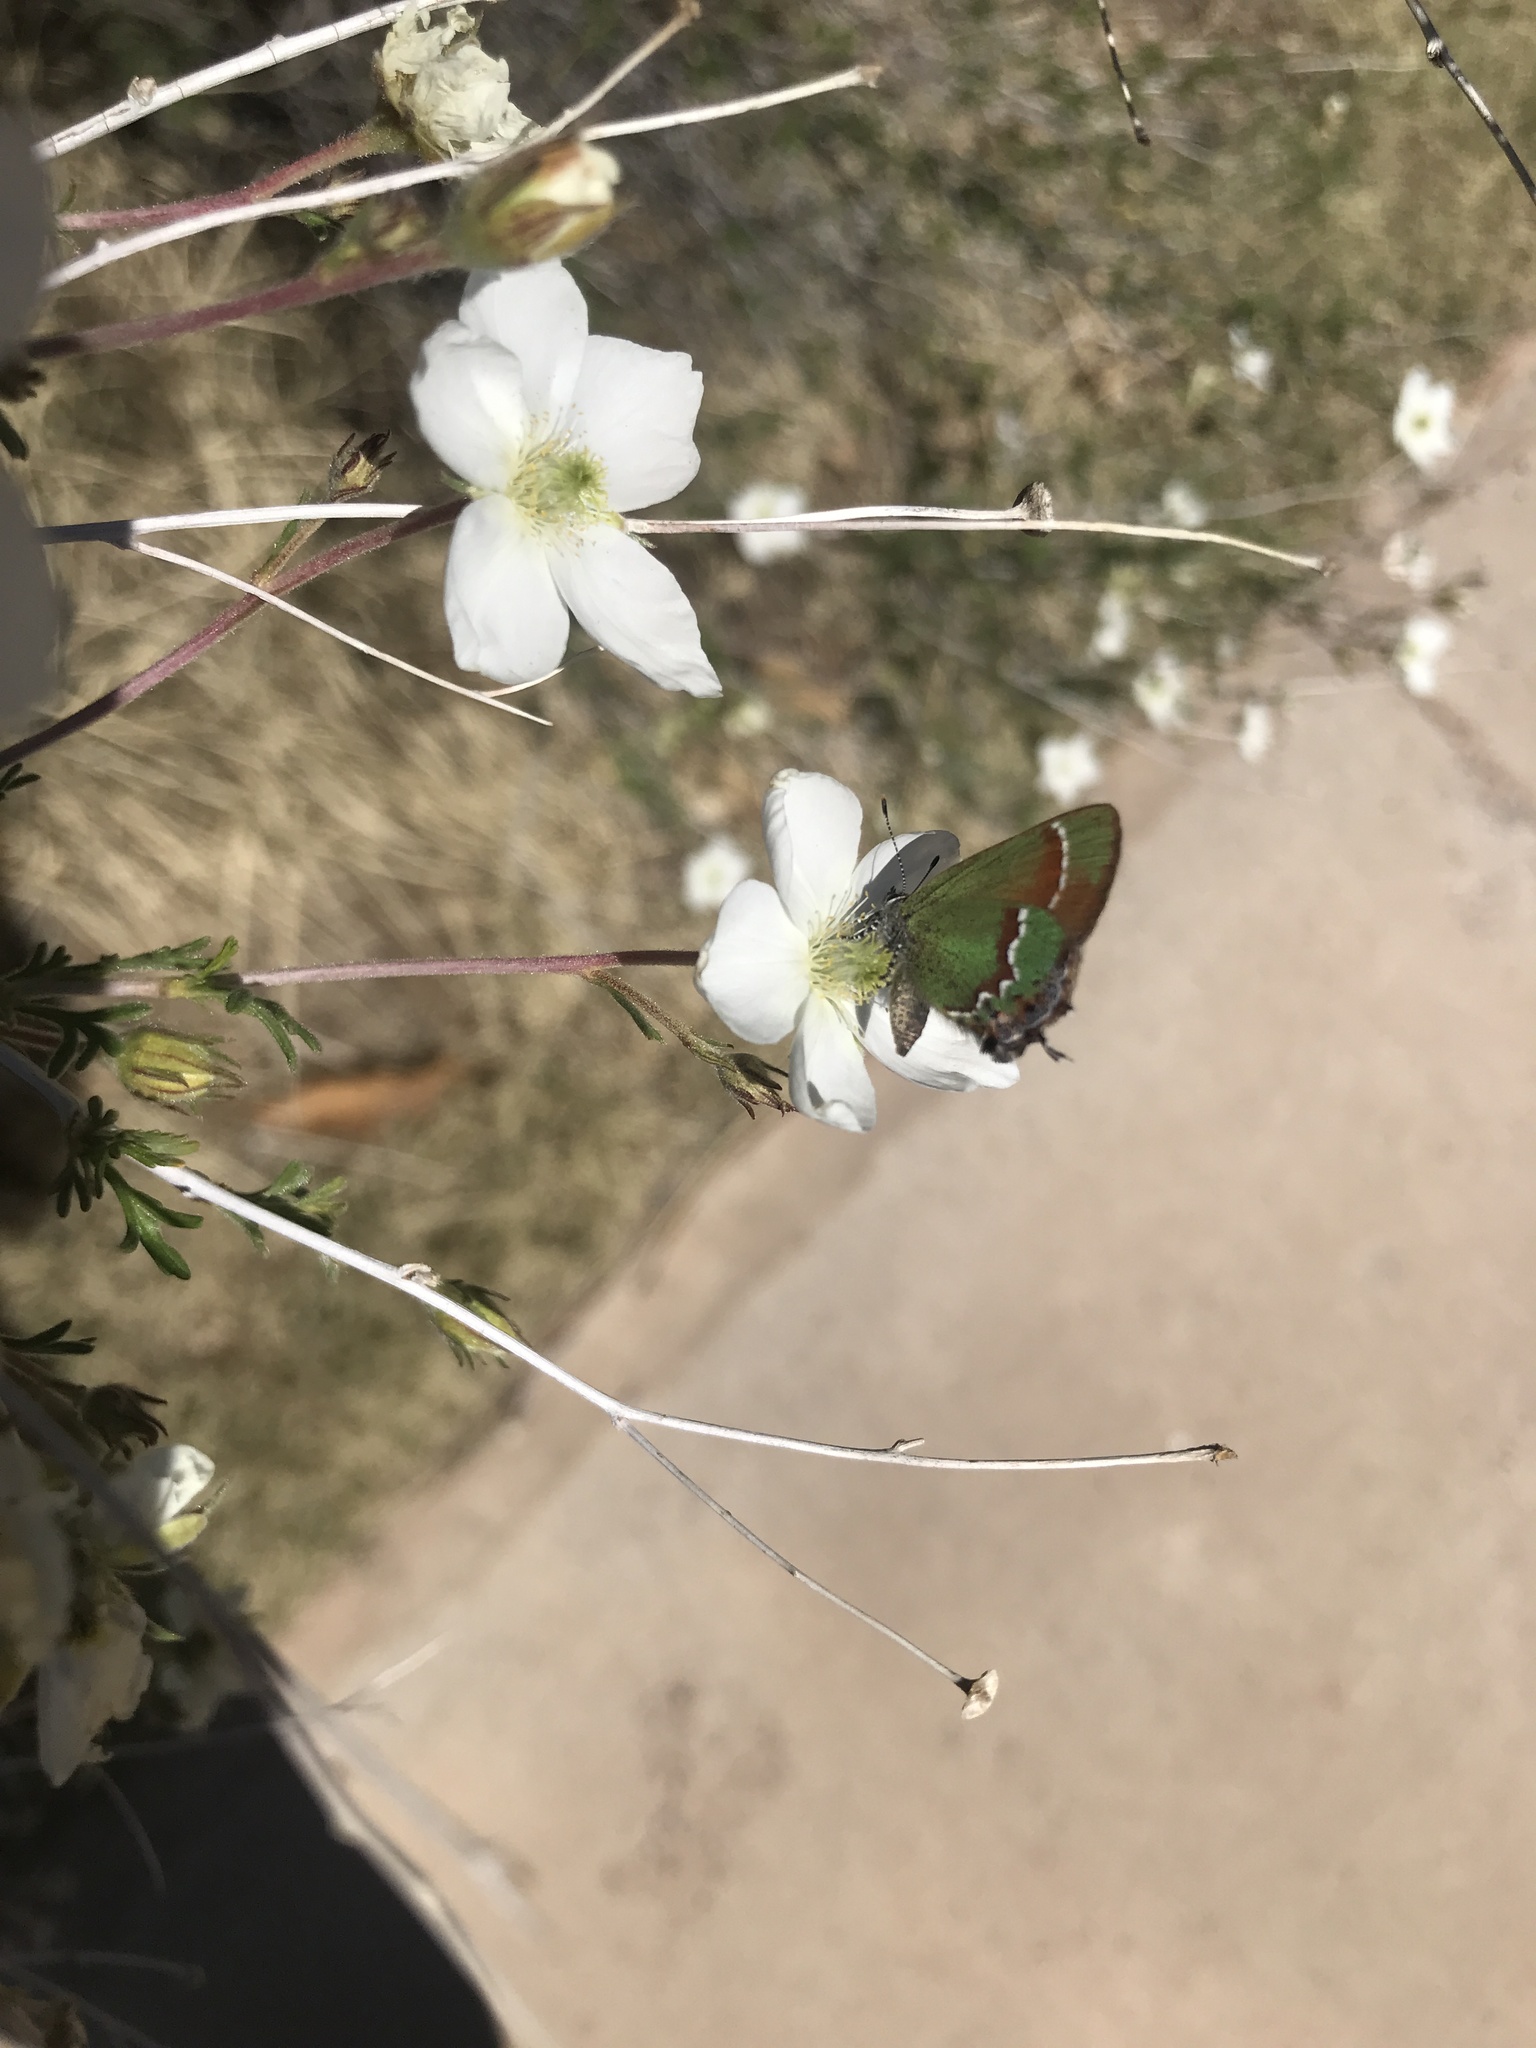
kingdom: Animalia
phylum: Arthropoda
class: Insecta
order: Lepidoptera
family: Lycaenidae
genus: Mitoura
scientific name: Mitoura gryneus
